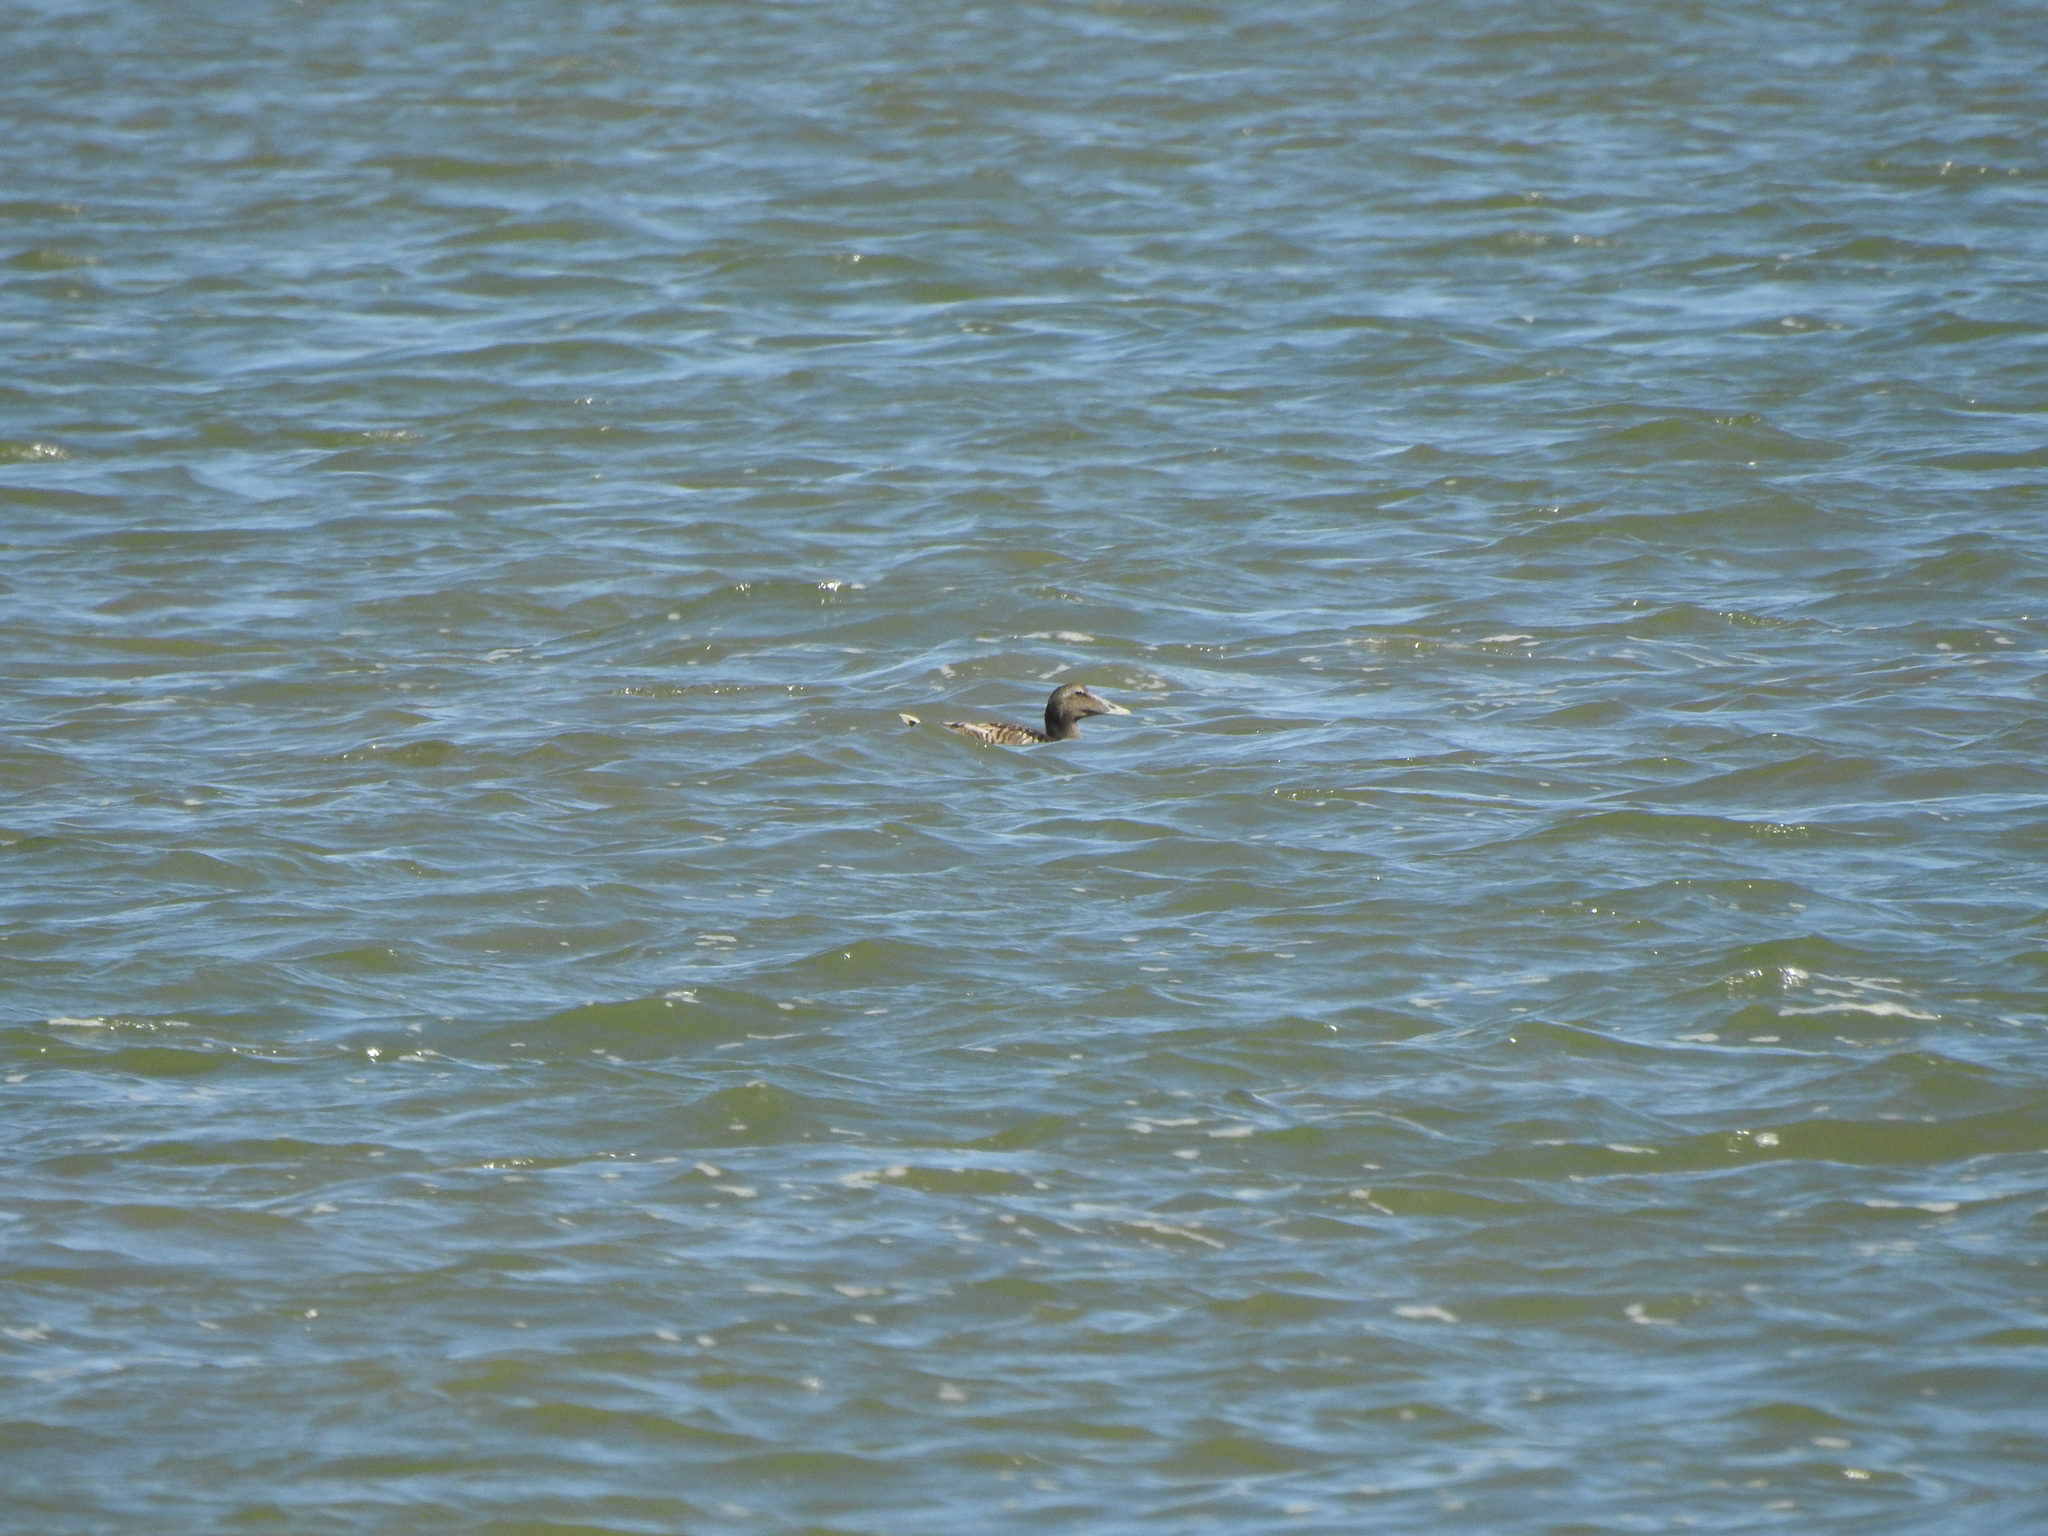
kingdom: Animalia
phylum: Chordata
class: Aves
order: Anseriformes
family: Anatidae
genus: Somateria
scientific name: Somateria mollissima
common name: Common eider
